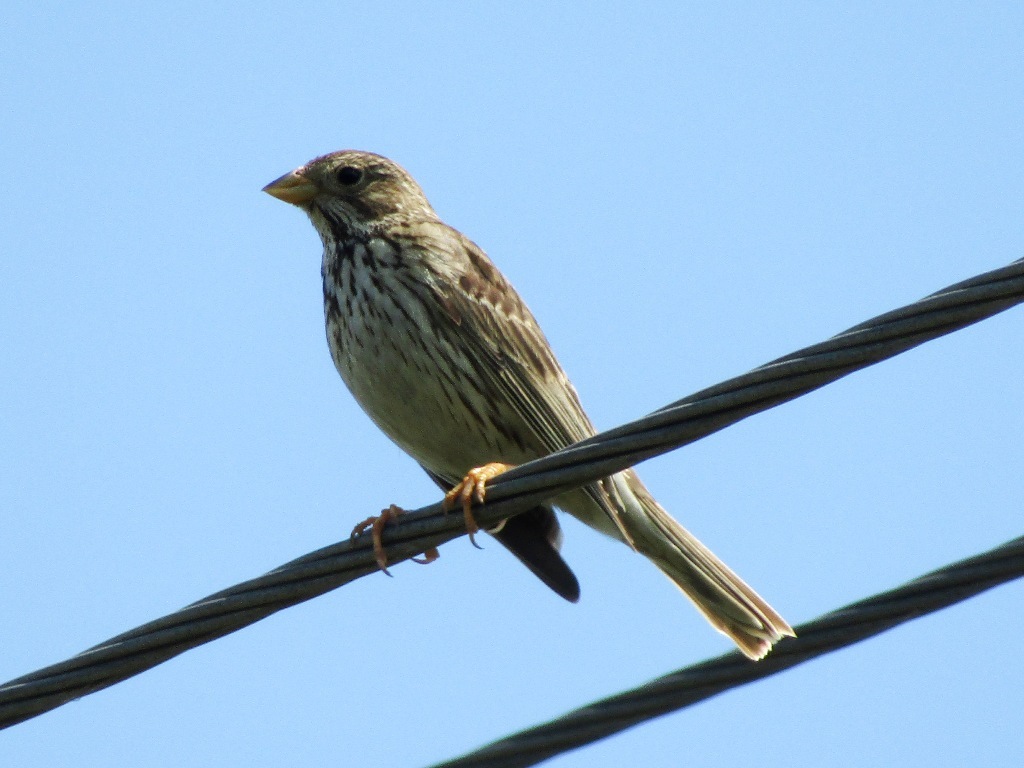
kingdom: Animalia
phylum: Chordata
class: Aves
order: Passeriformes
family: Emberizidae
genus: Emberiza
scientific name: Emberiza calandra
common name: Corn bunting
